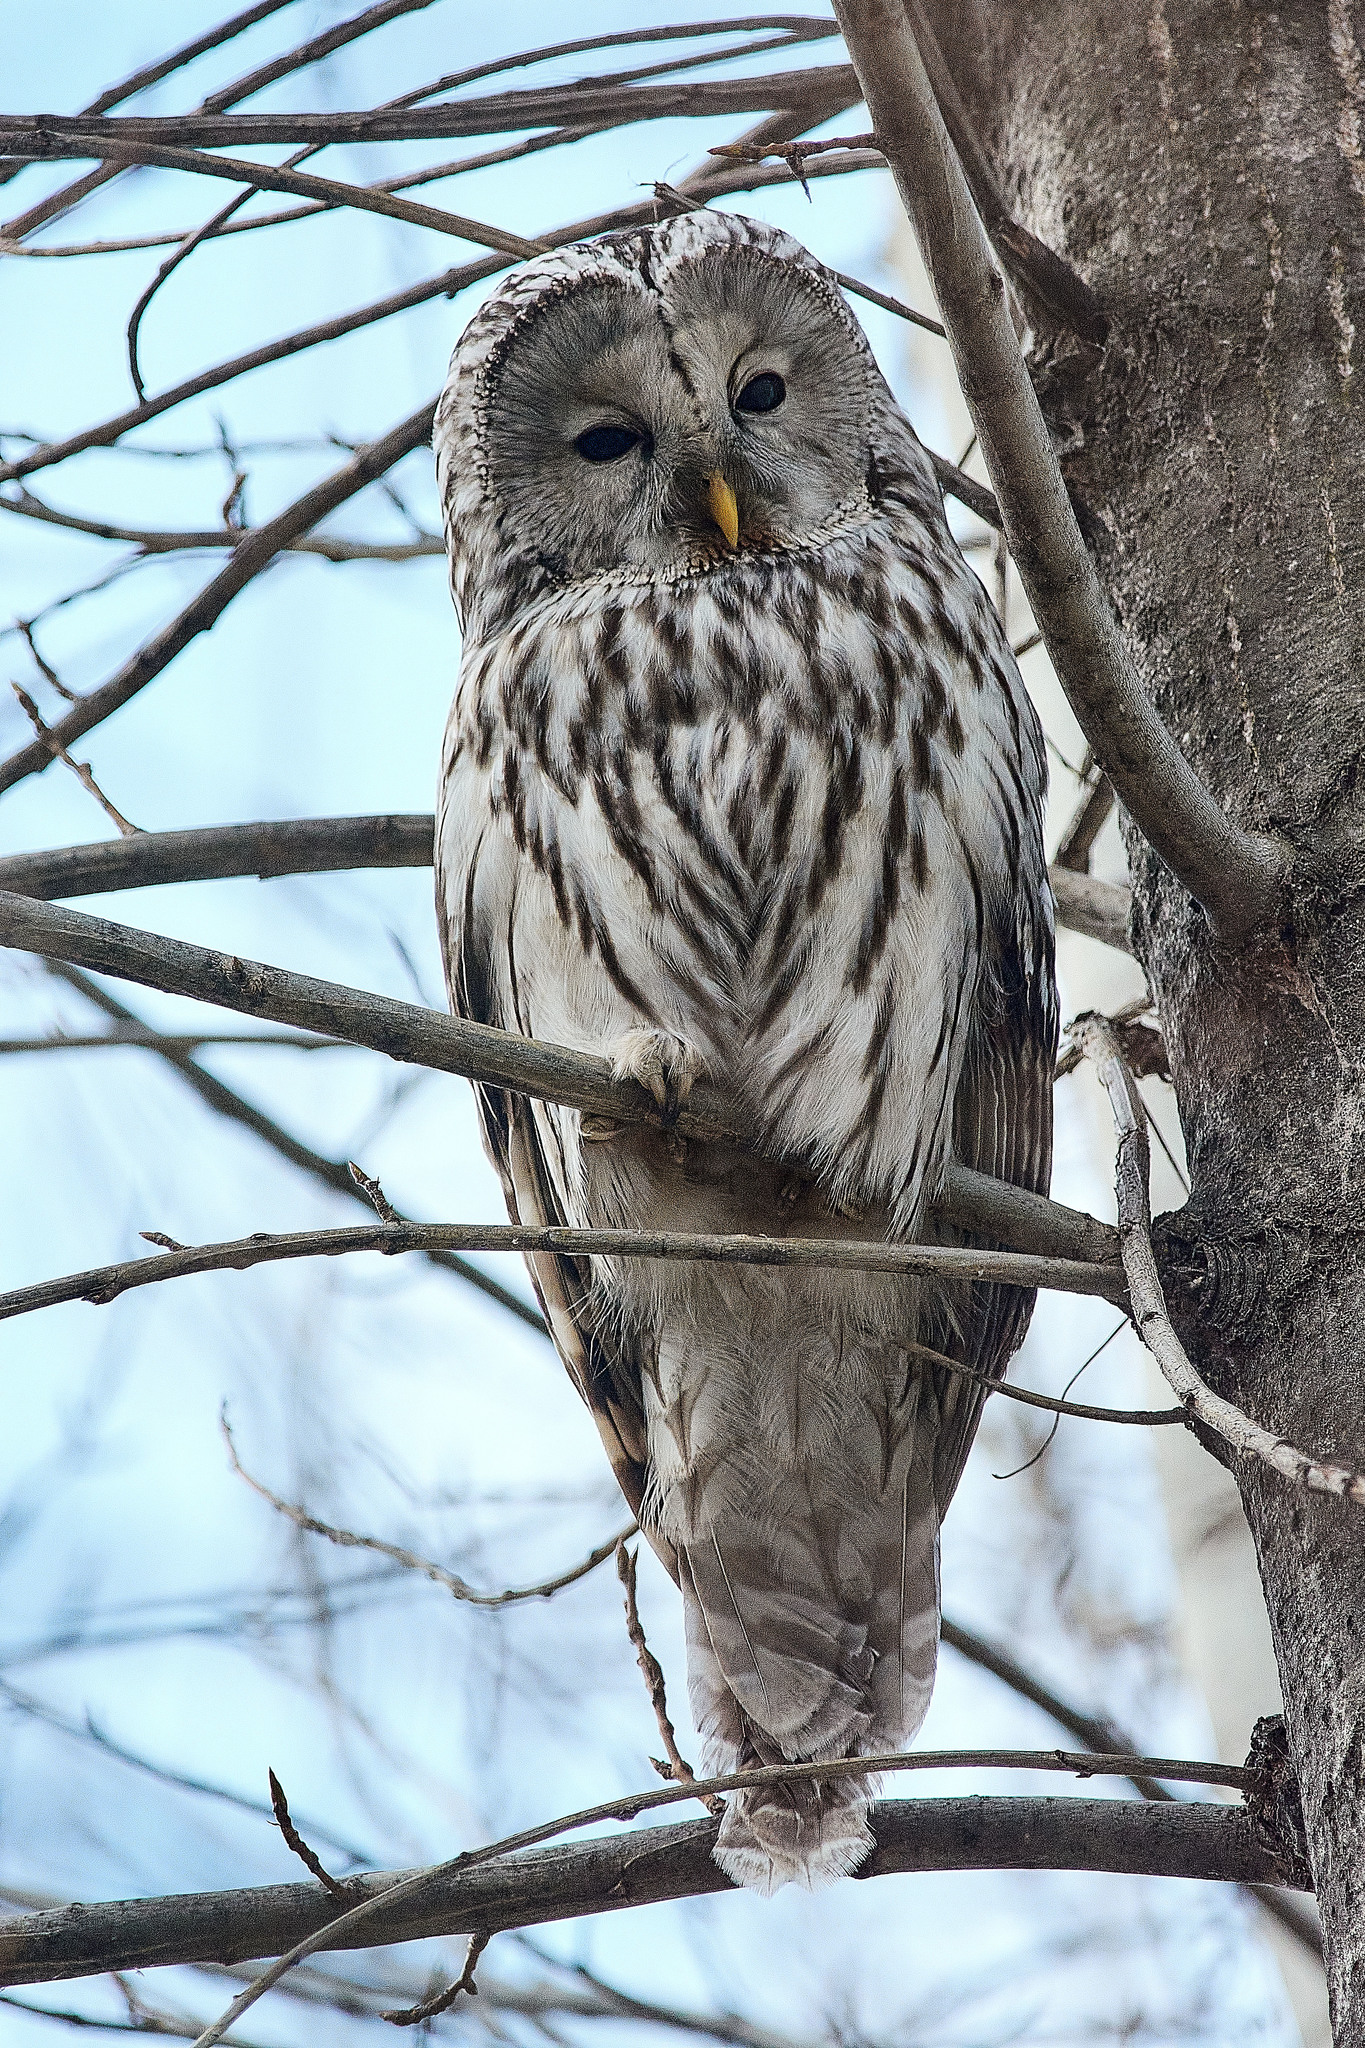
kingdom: Animalia
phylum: Chordata
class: Aves
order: Strigiformes
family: Strigidae
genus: Strix
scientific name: Strix uralensis
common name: Ural owl
